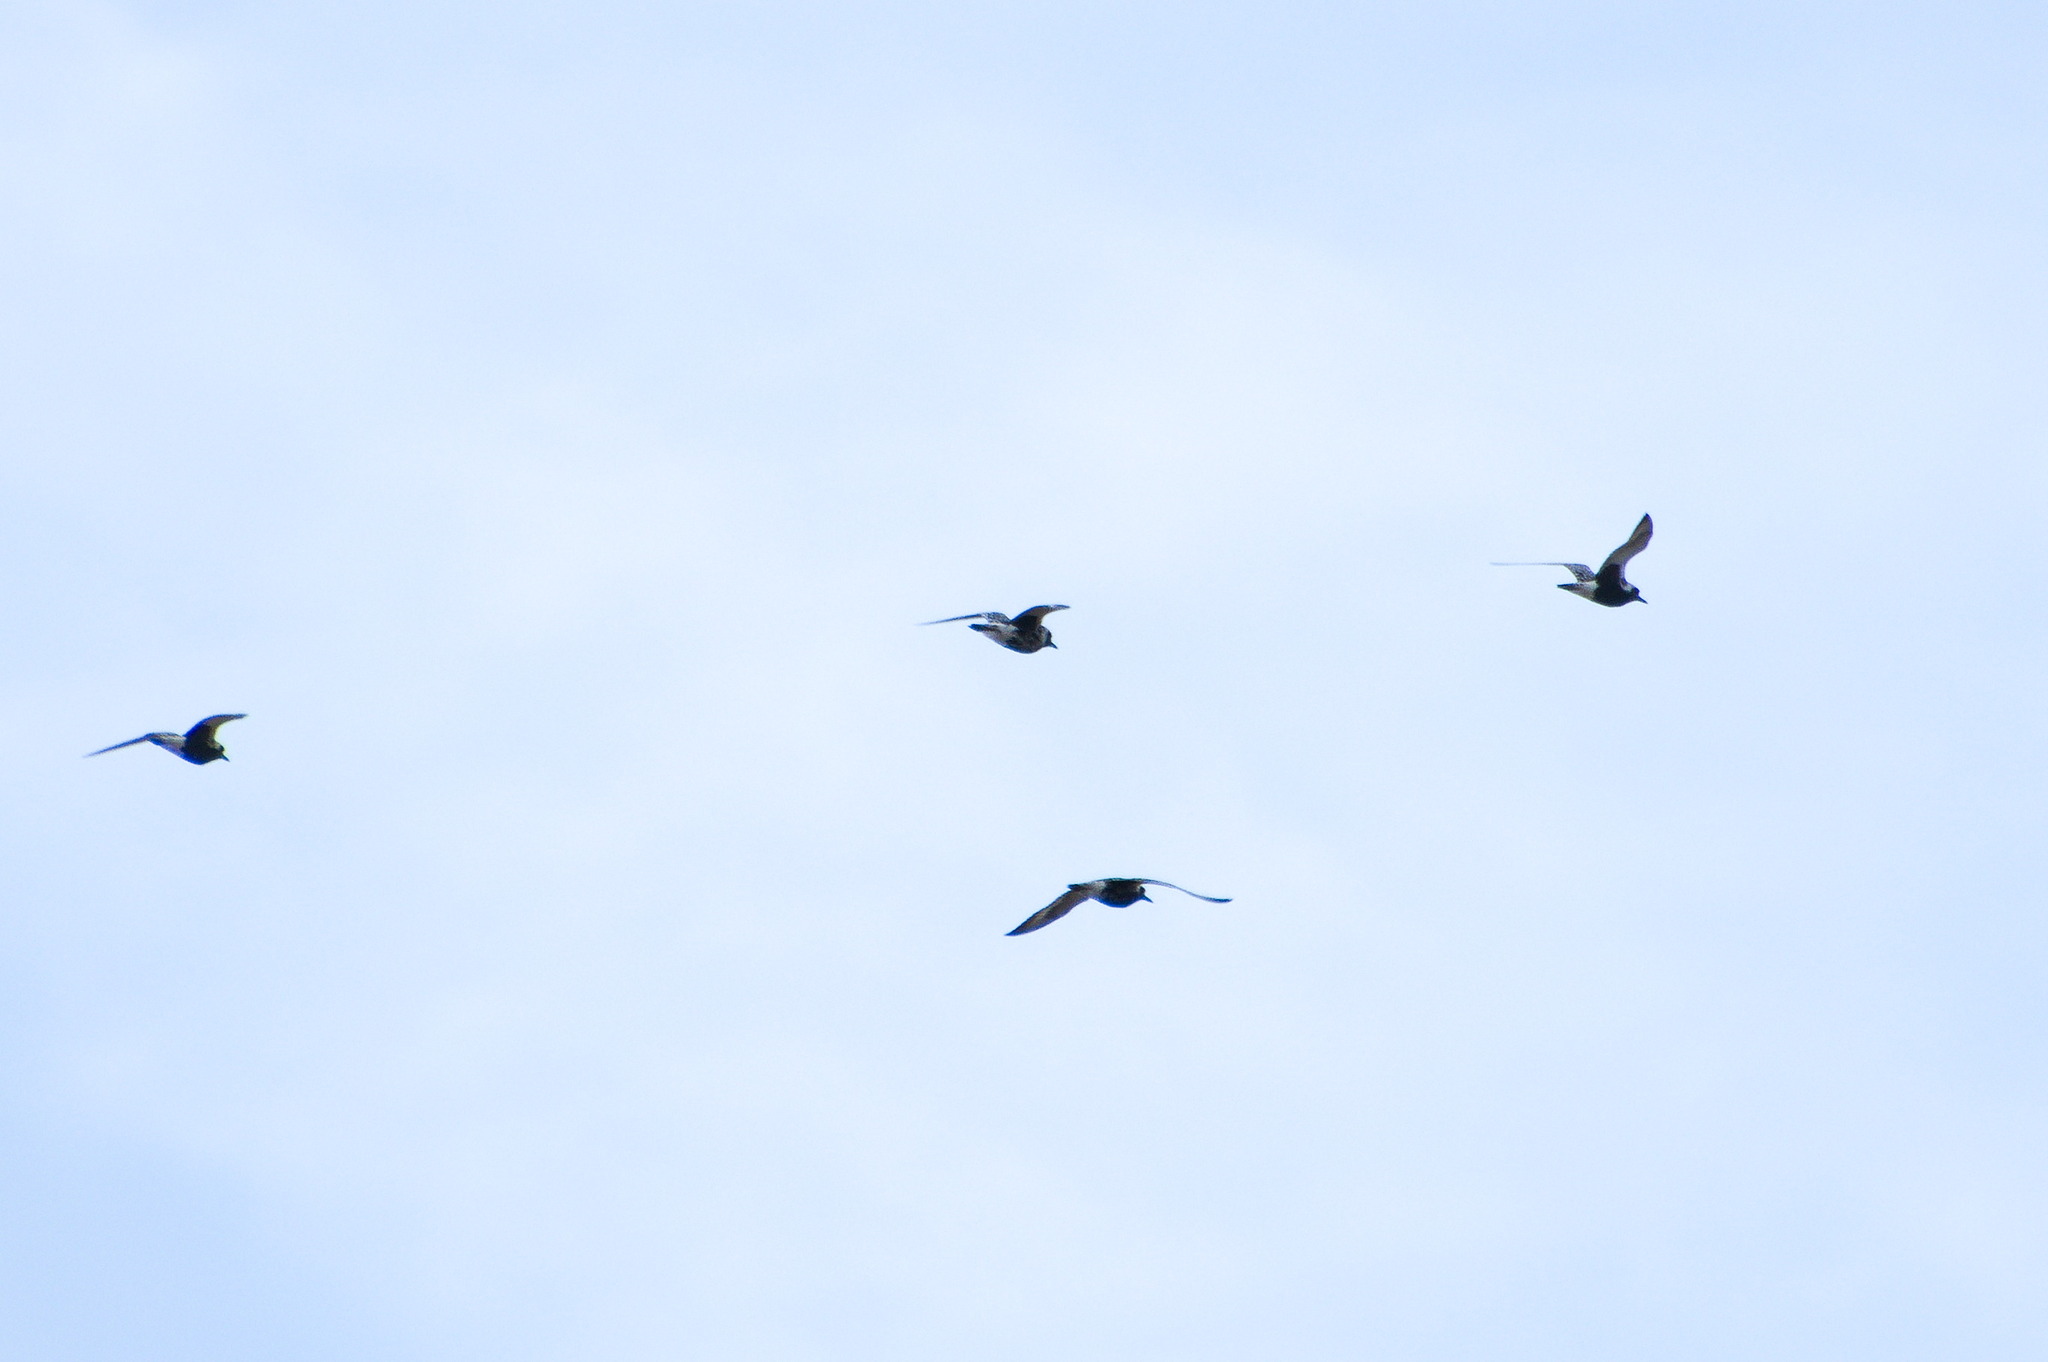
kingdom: Animalia
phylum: Chordata
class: Aves
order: Charadriiformes
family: Charadriidae
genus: Pluvialis
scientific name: Pluvialis squatarola
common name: Grey plover
